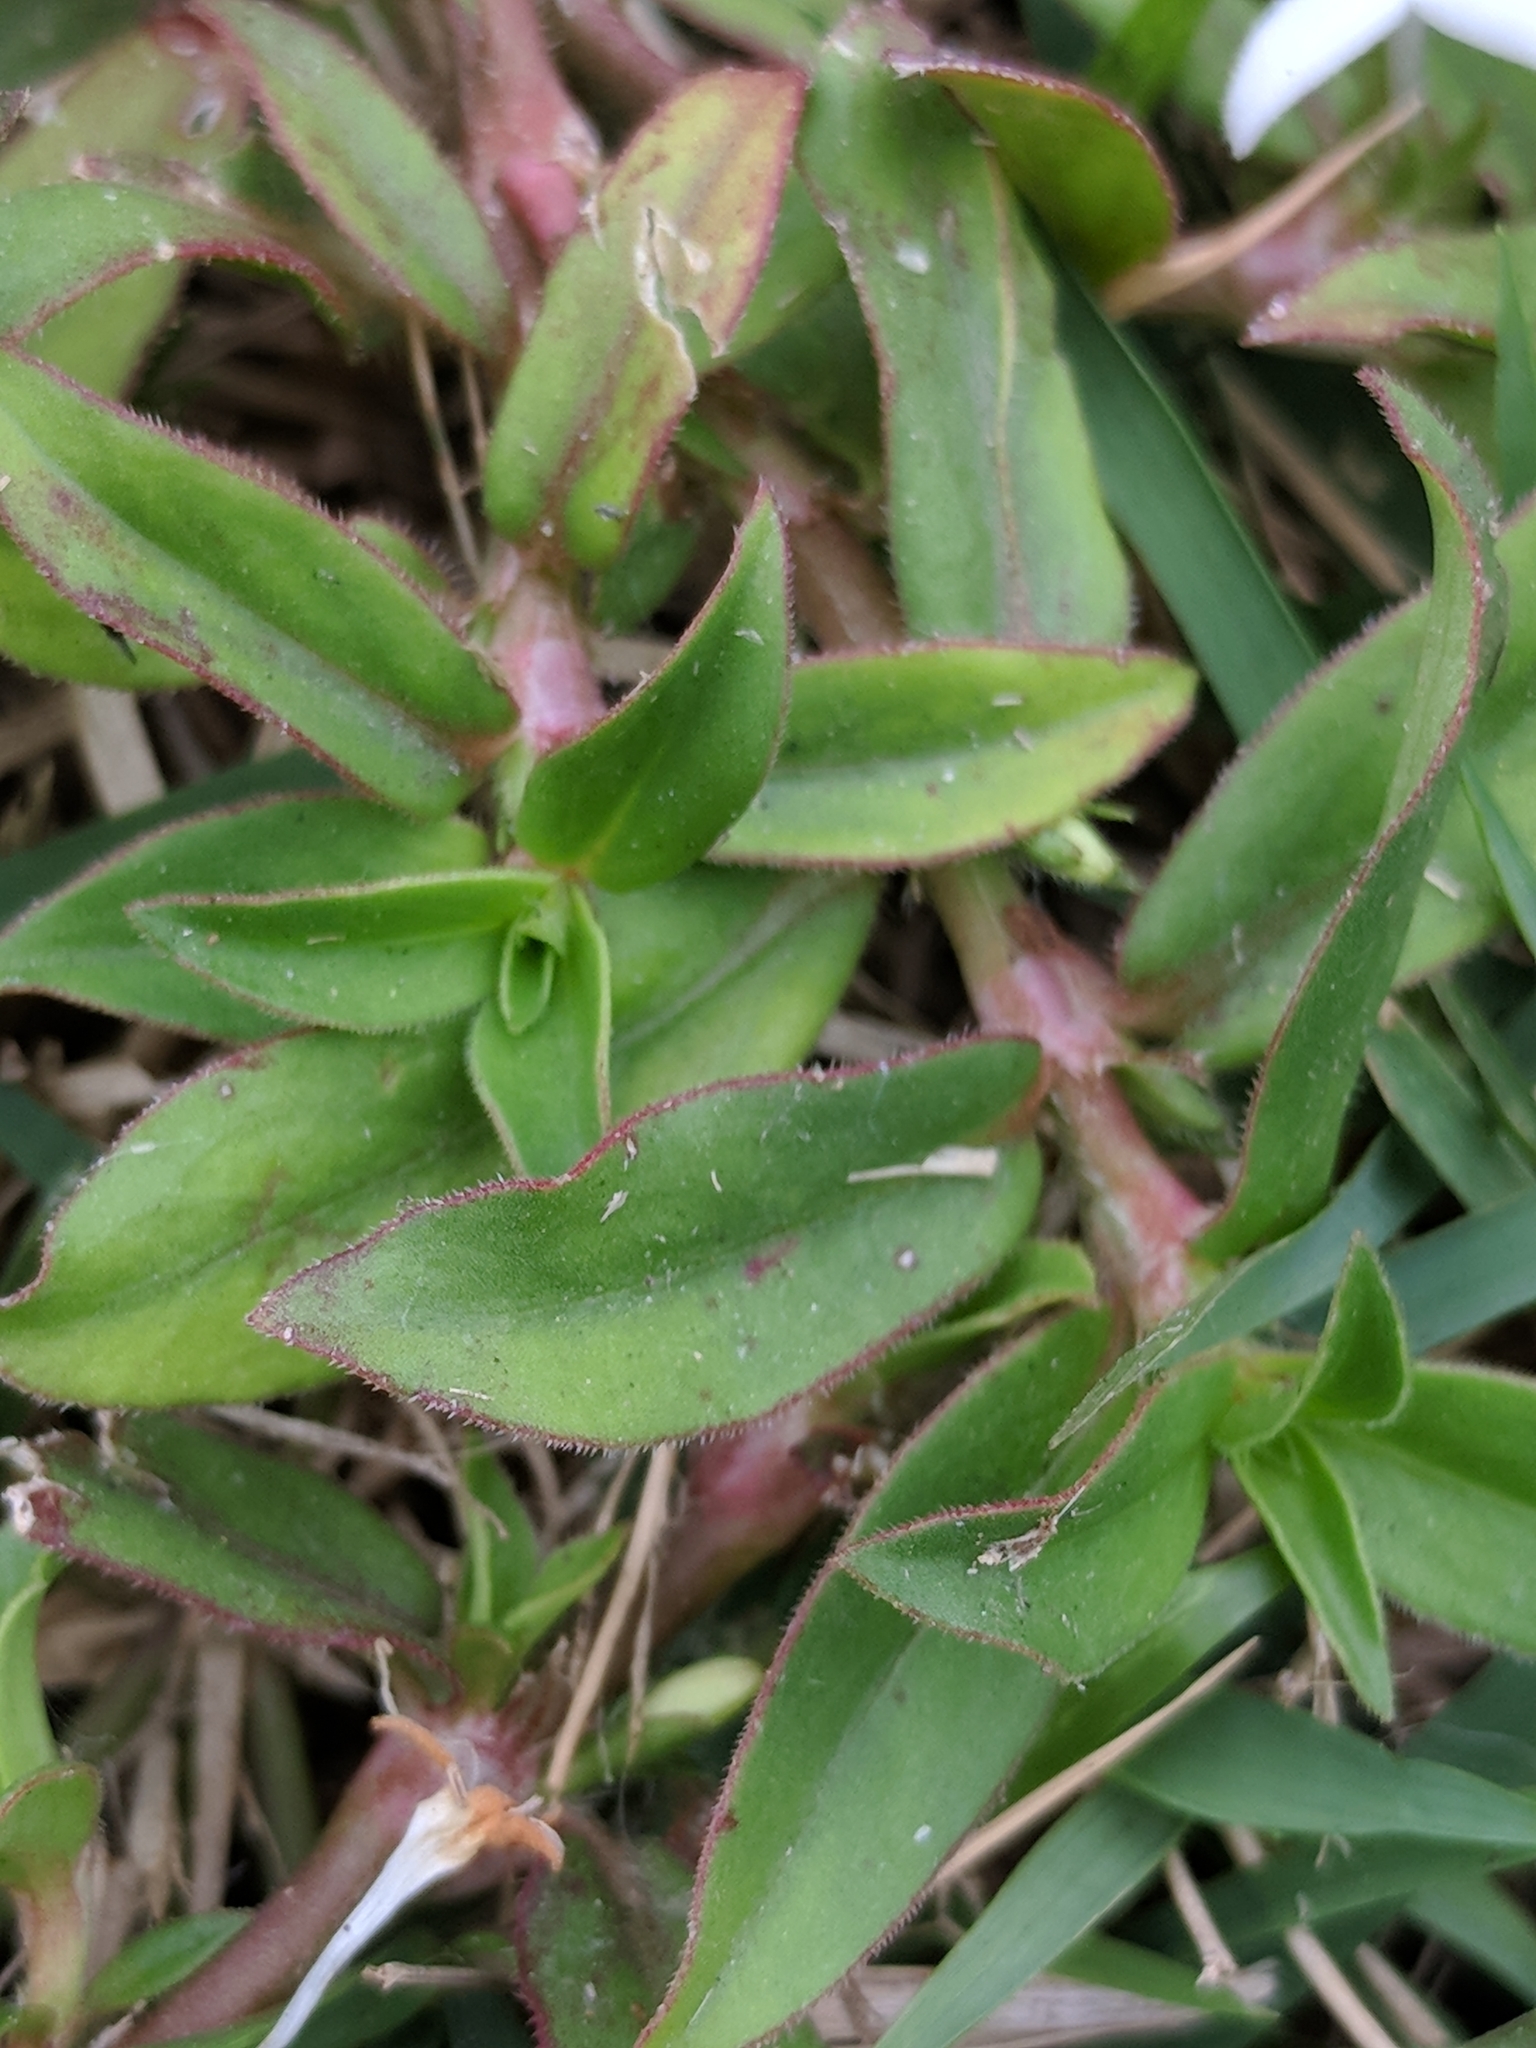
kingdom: Plantae
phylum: Tracheophyta
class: Magnoliopsida
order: Gentianales
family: Rubiaceae
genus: Diodia
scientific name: Diodia virginiana
